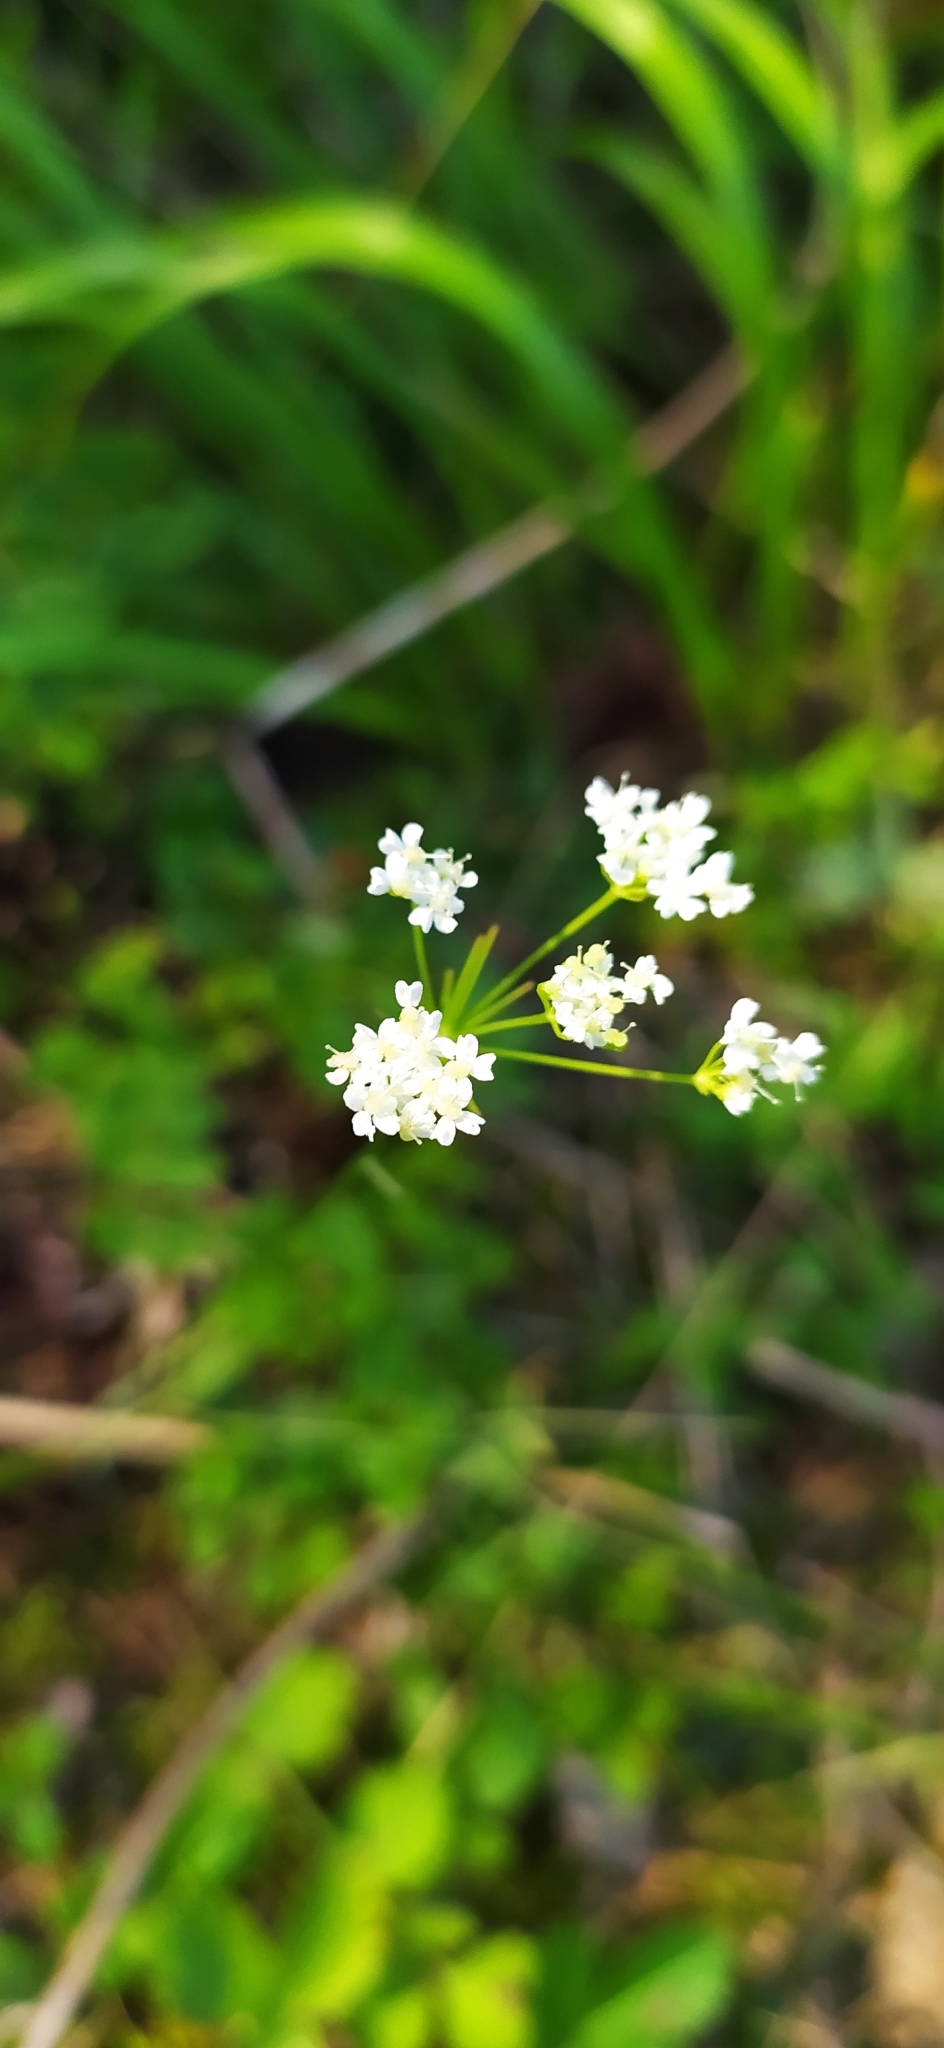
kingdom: Plantae
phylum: Tracheophyta
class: Magnoliopsida
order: Apiales
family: Apiaceae
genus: Pimpinella
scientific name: Pimpinella saxifraga
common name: Burnet-saxifrage
